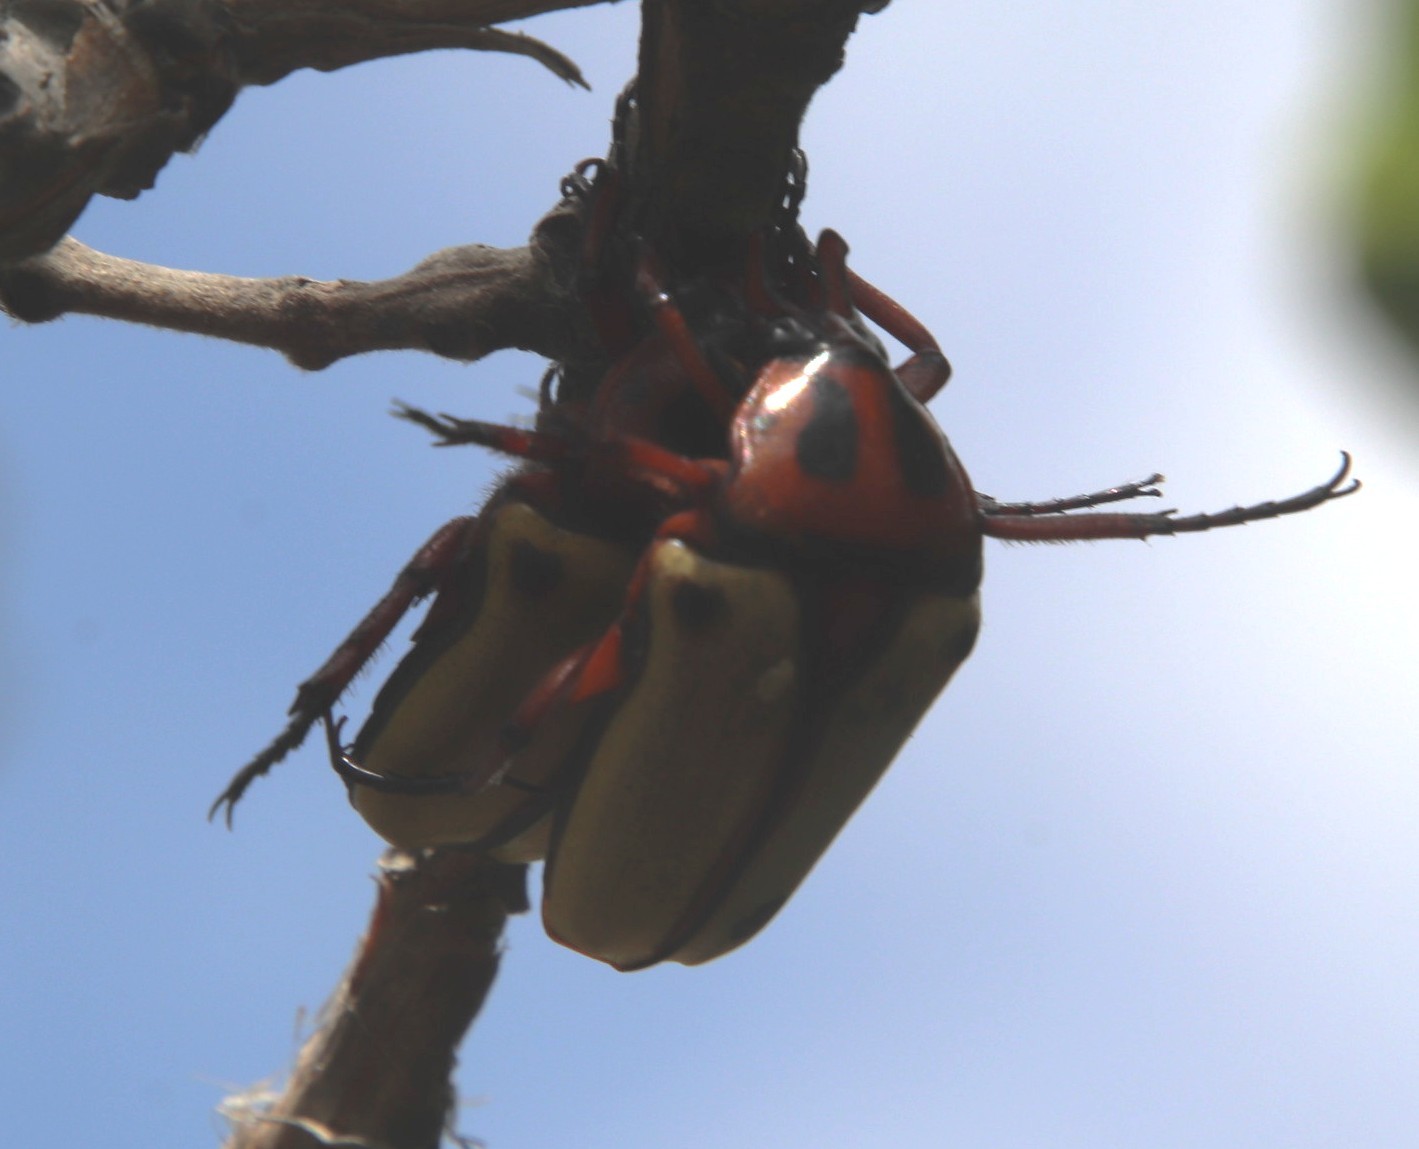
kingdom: Animalia
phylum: Arthropoda
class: Insecta
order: Coleoptera
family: Scarabaeidae
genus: Anisorrhina
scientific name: Anisorrhina algoensis
